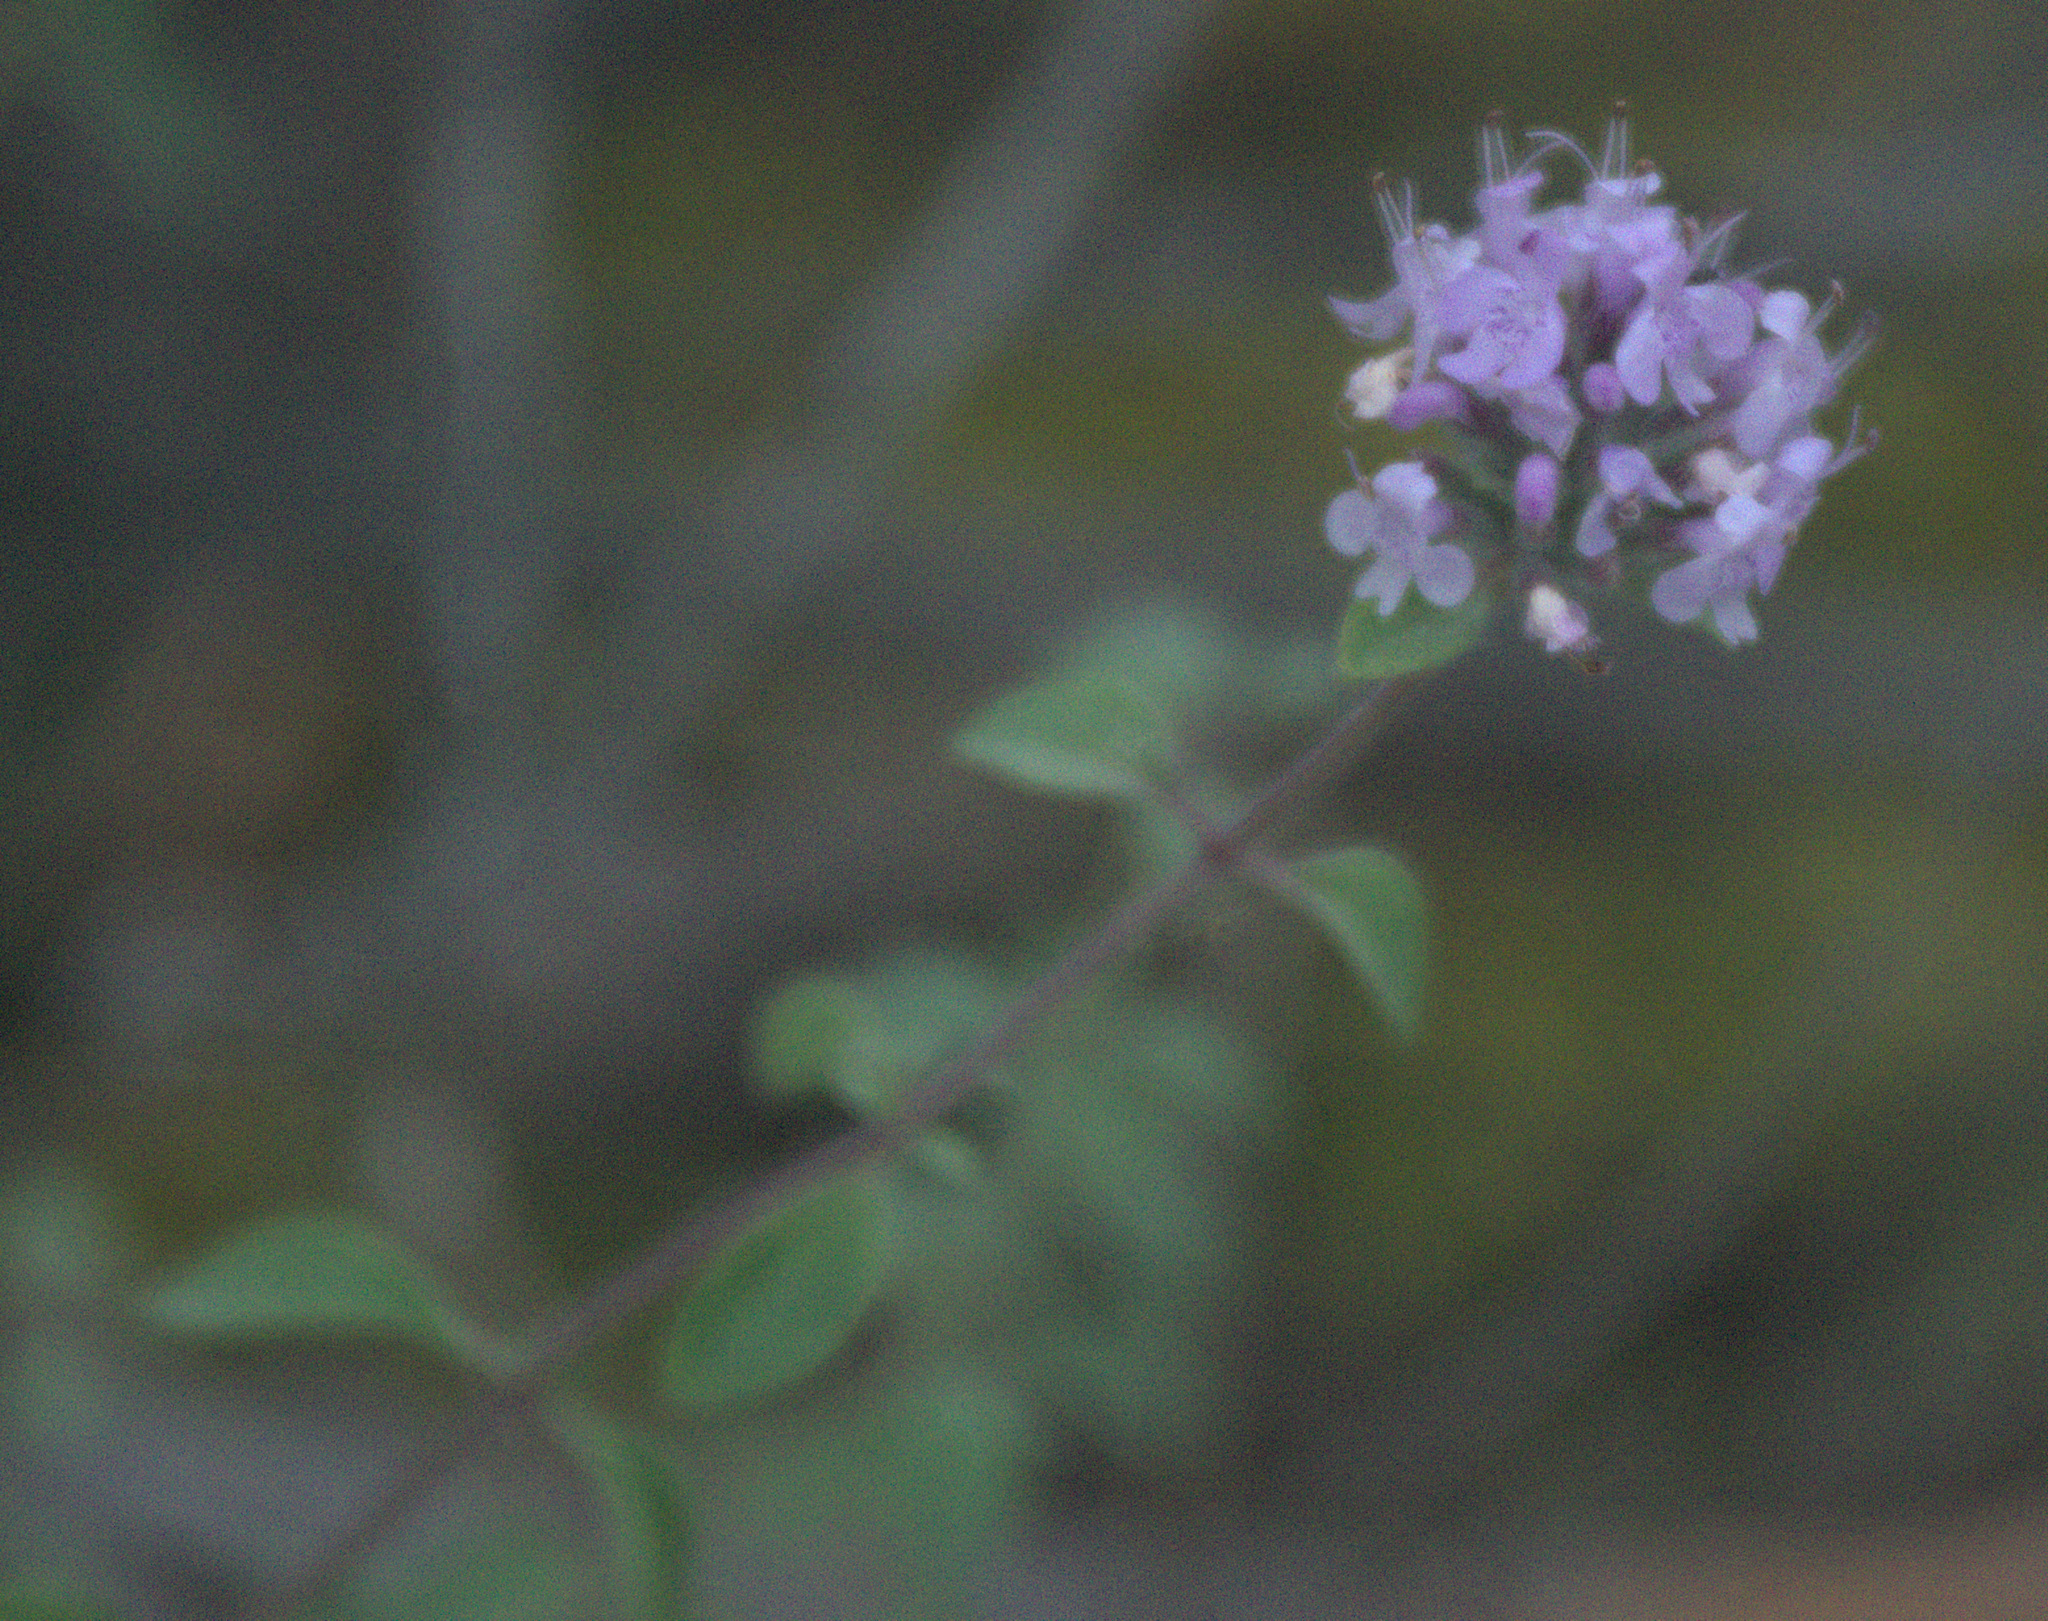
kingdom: Plantae
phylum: Tracheophyta
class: Magnoliopsida
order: Lamiales
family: Lamiaceae
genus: Origanum
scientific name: Origanum vulgare
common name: Wild marjoram
